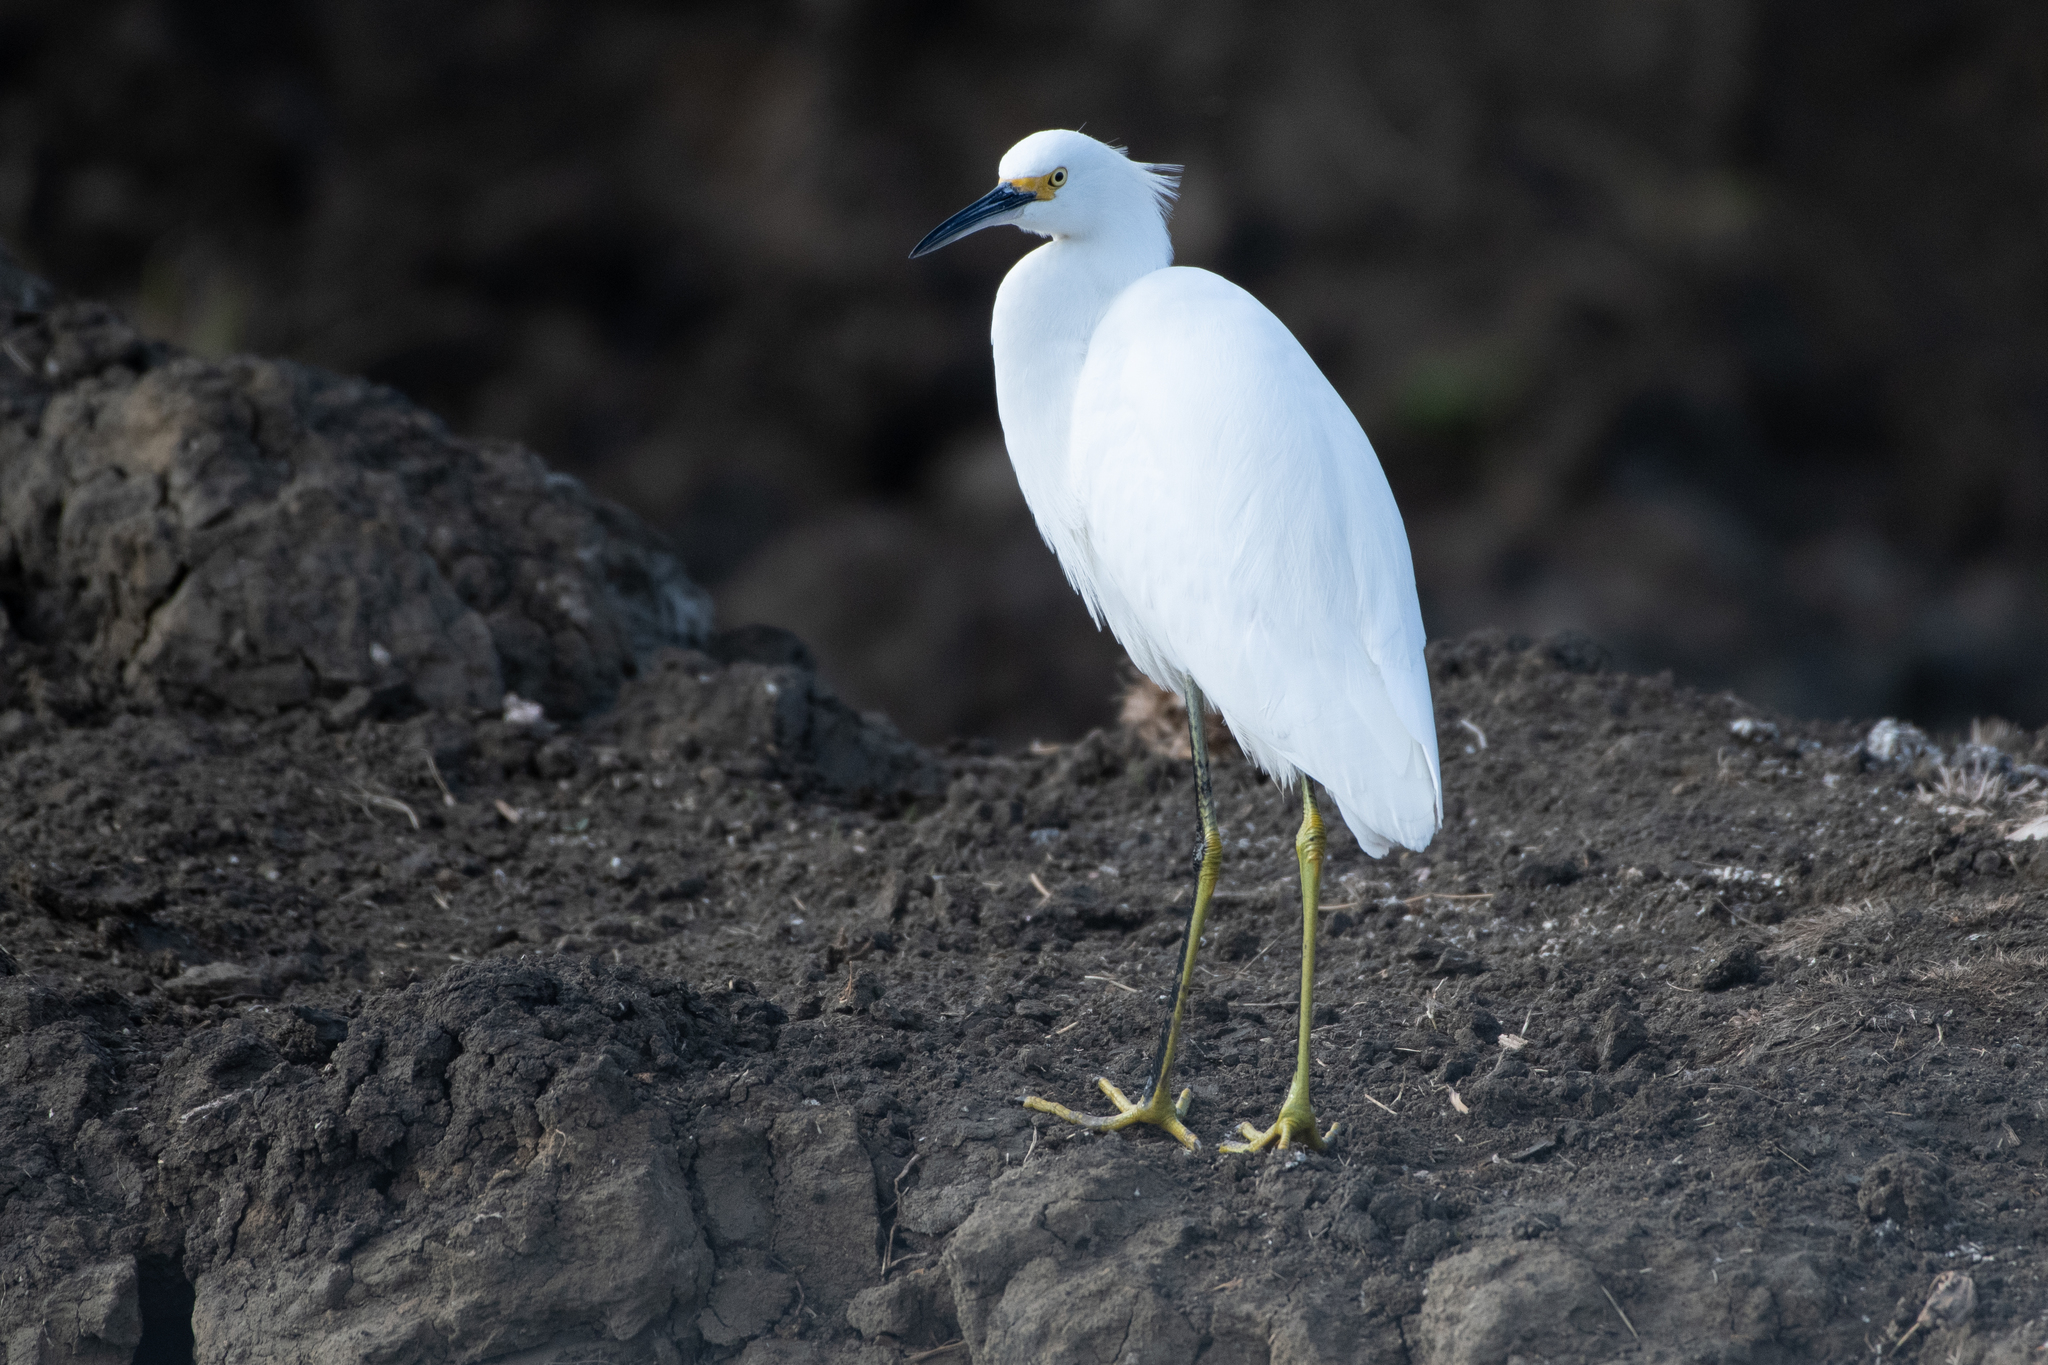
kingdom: Animalia
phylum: Chordata
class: Aves
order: Pelecaniformes
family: Ardeidae
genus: Egretta
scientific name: Egretta thula
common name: Snowy egret
